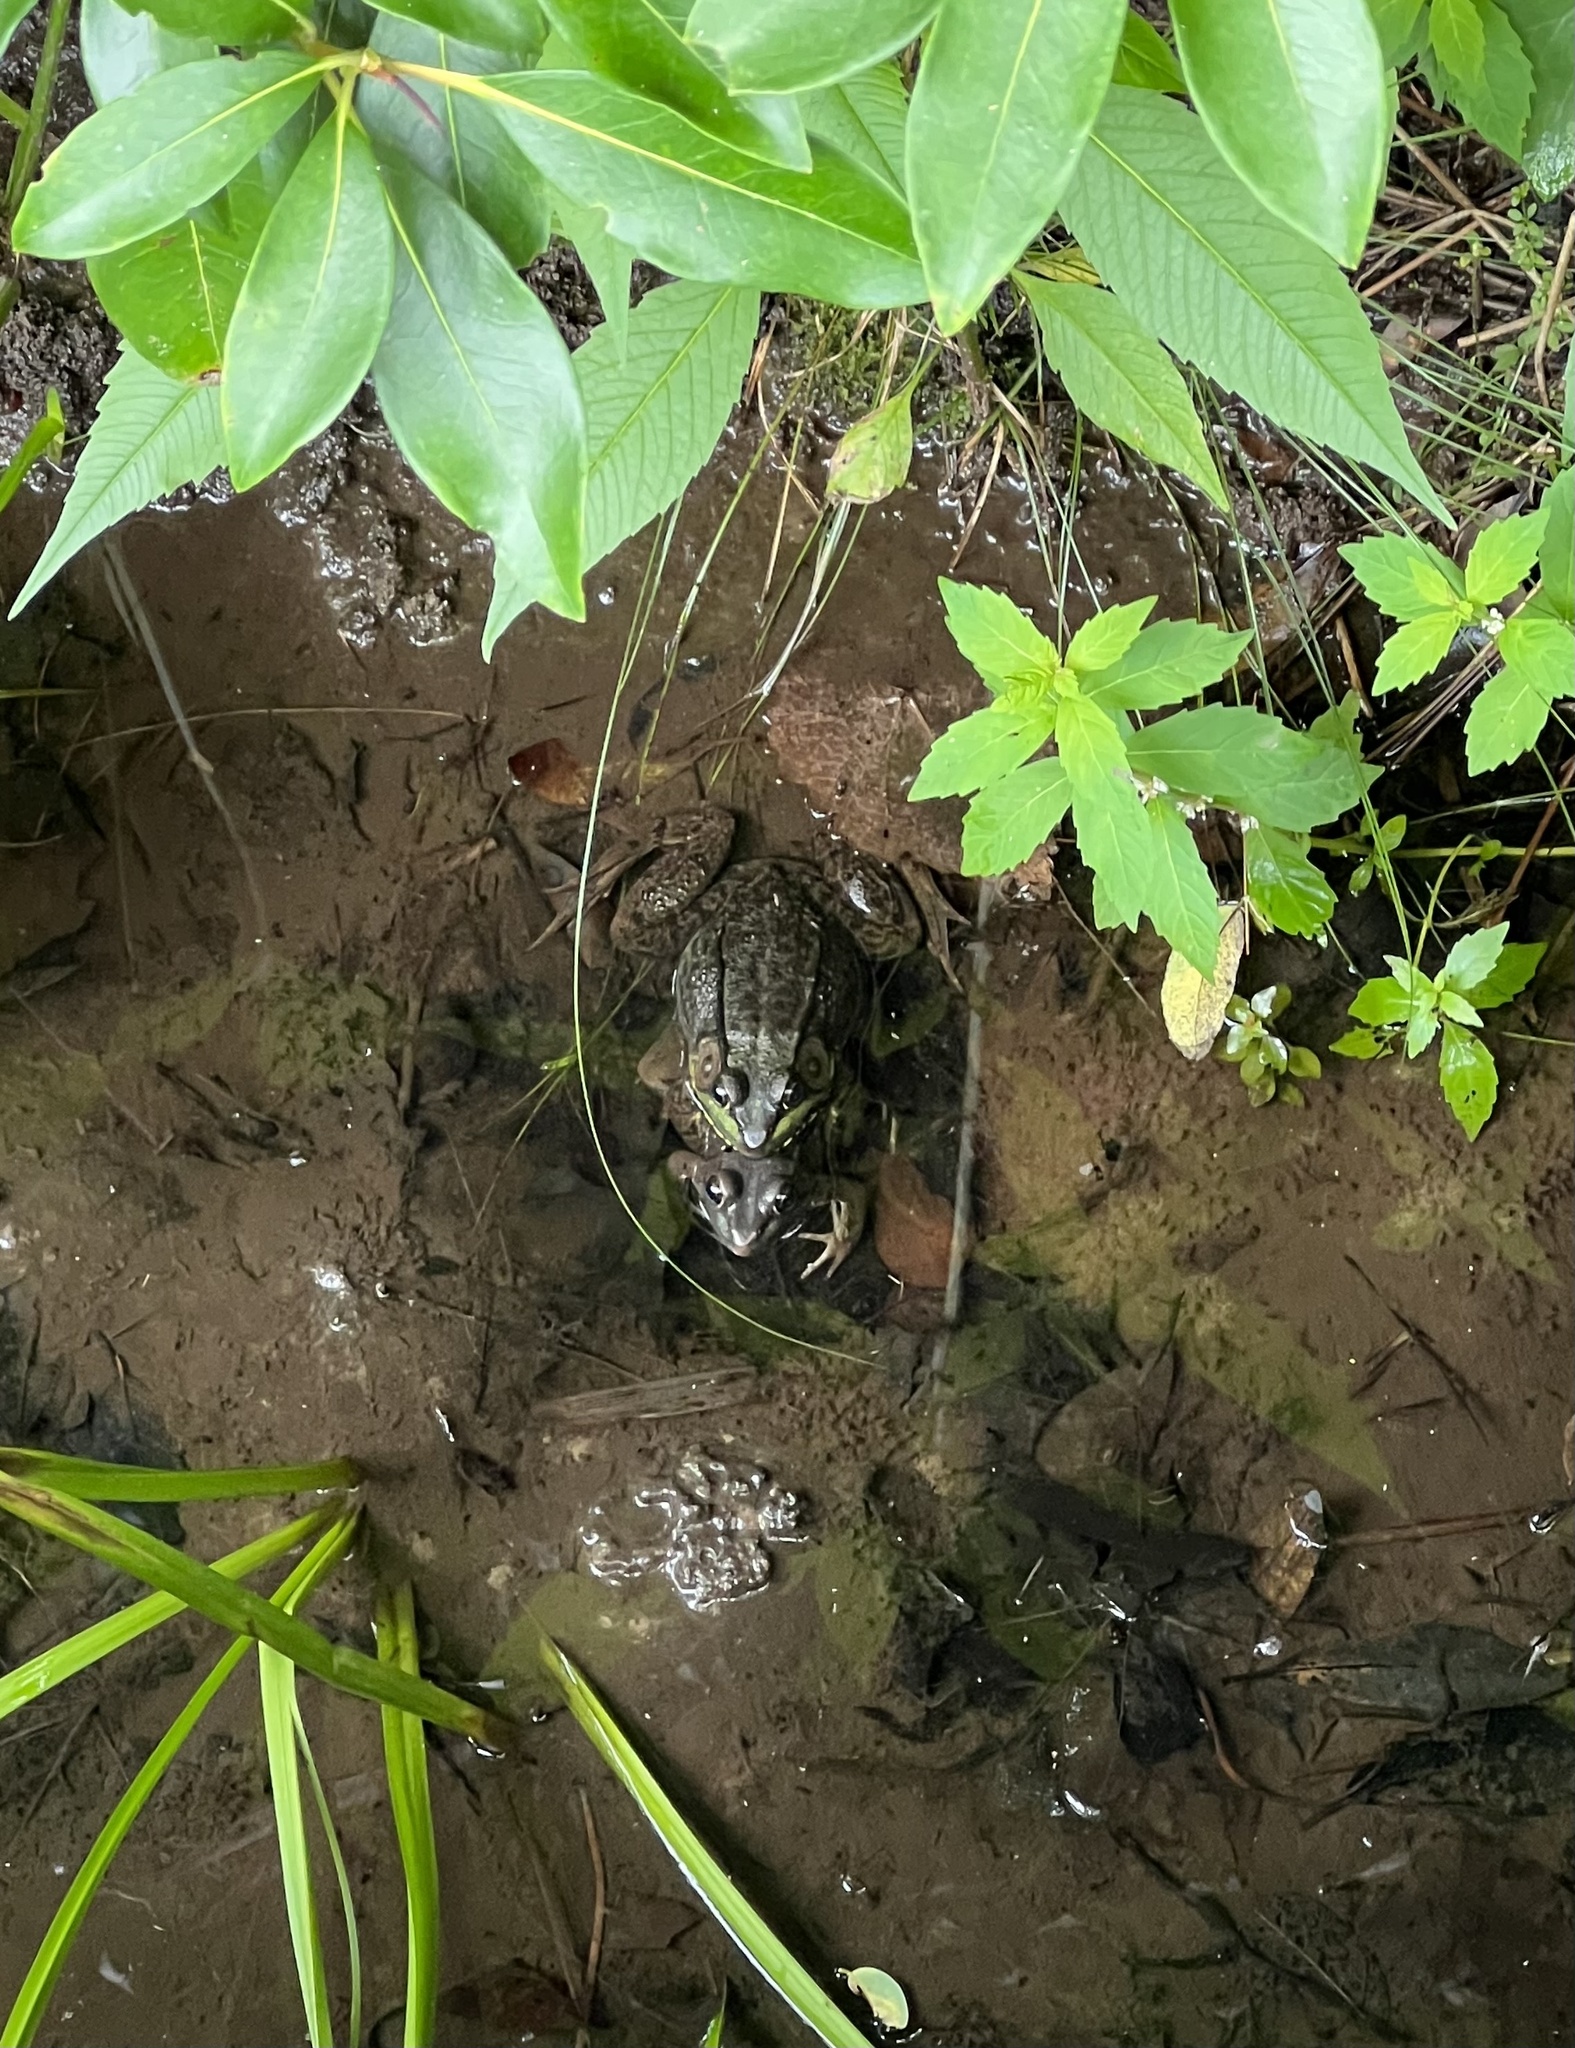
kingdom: Animalia
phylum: Chordata
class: Amphibia
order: Anura
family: Ranidae
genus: Lithobates
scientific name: Lithobates clamitans
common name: Green frog
